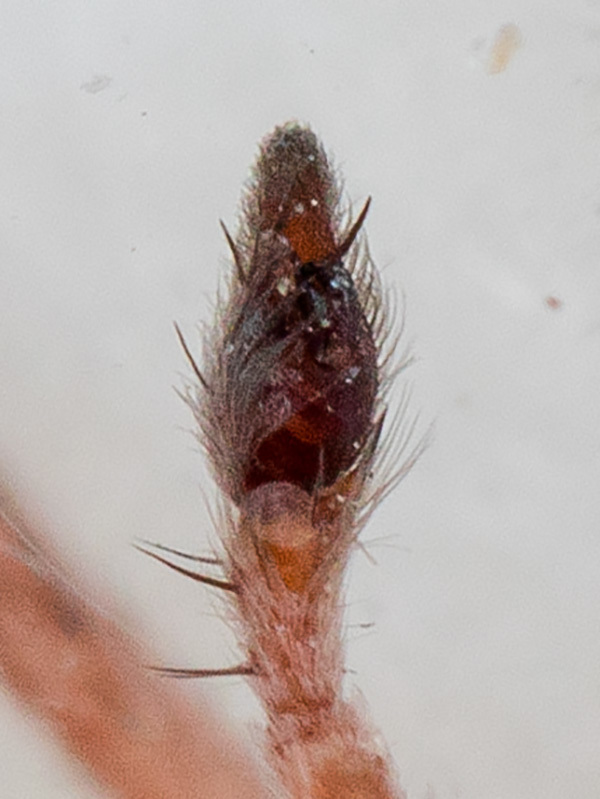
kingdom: Animalia
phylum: Arthropoda
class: Arachnida
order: Araneae
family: Gnaphosidae
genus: Sidydrassus
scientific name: Sidydrassus tianschanicus
